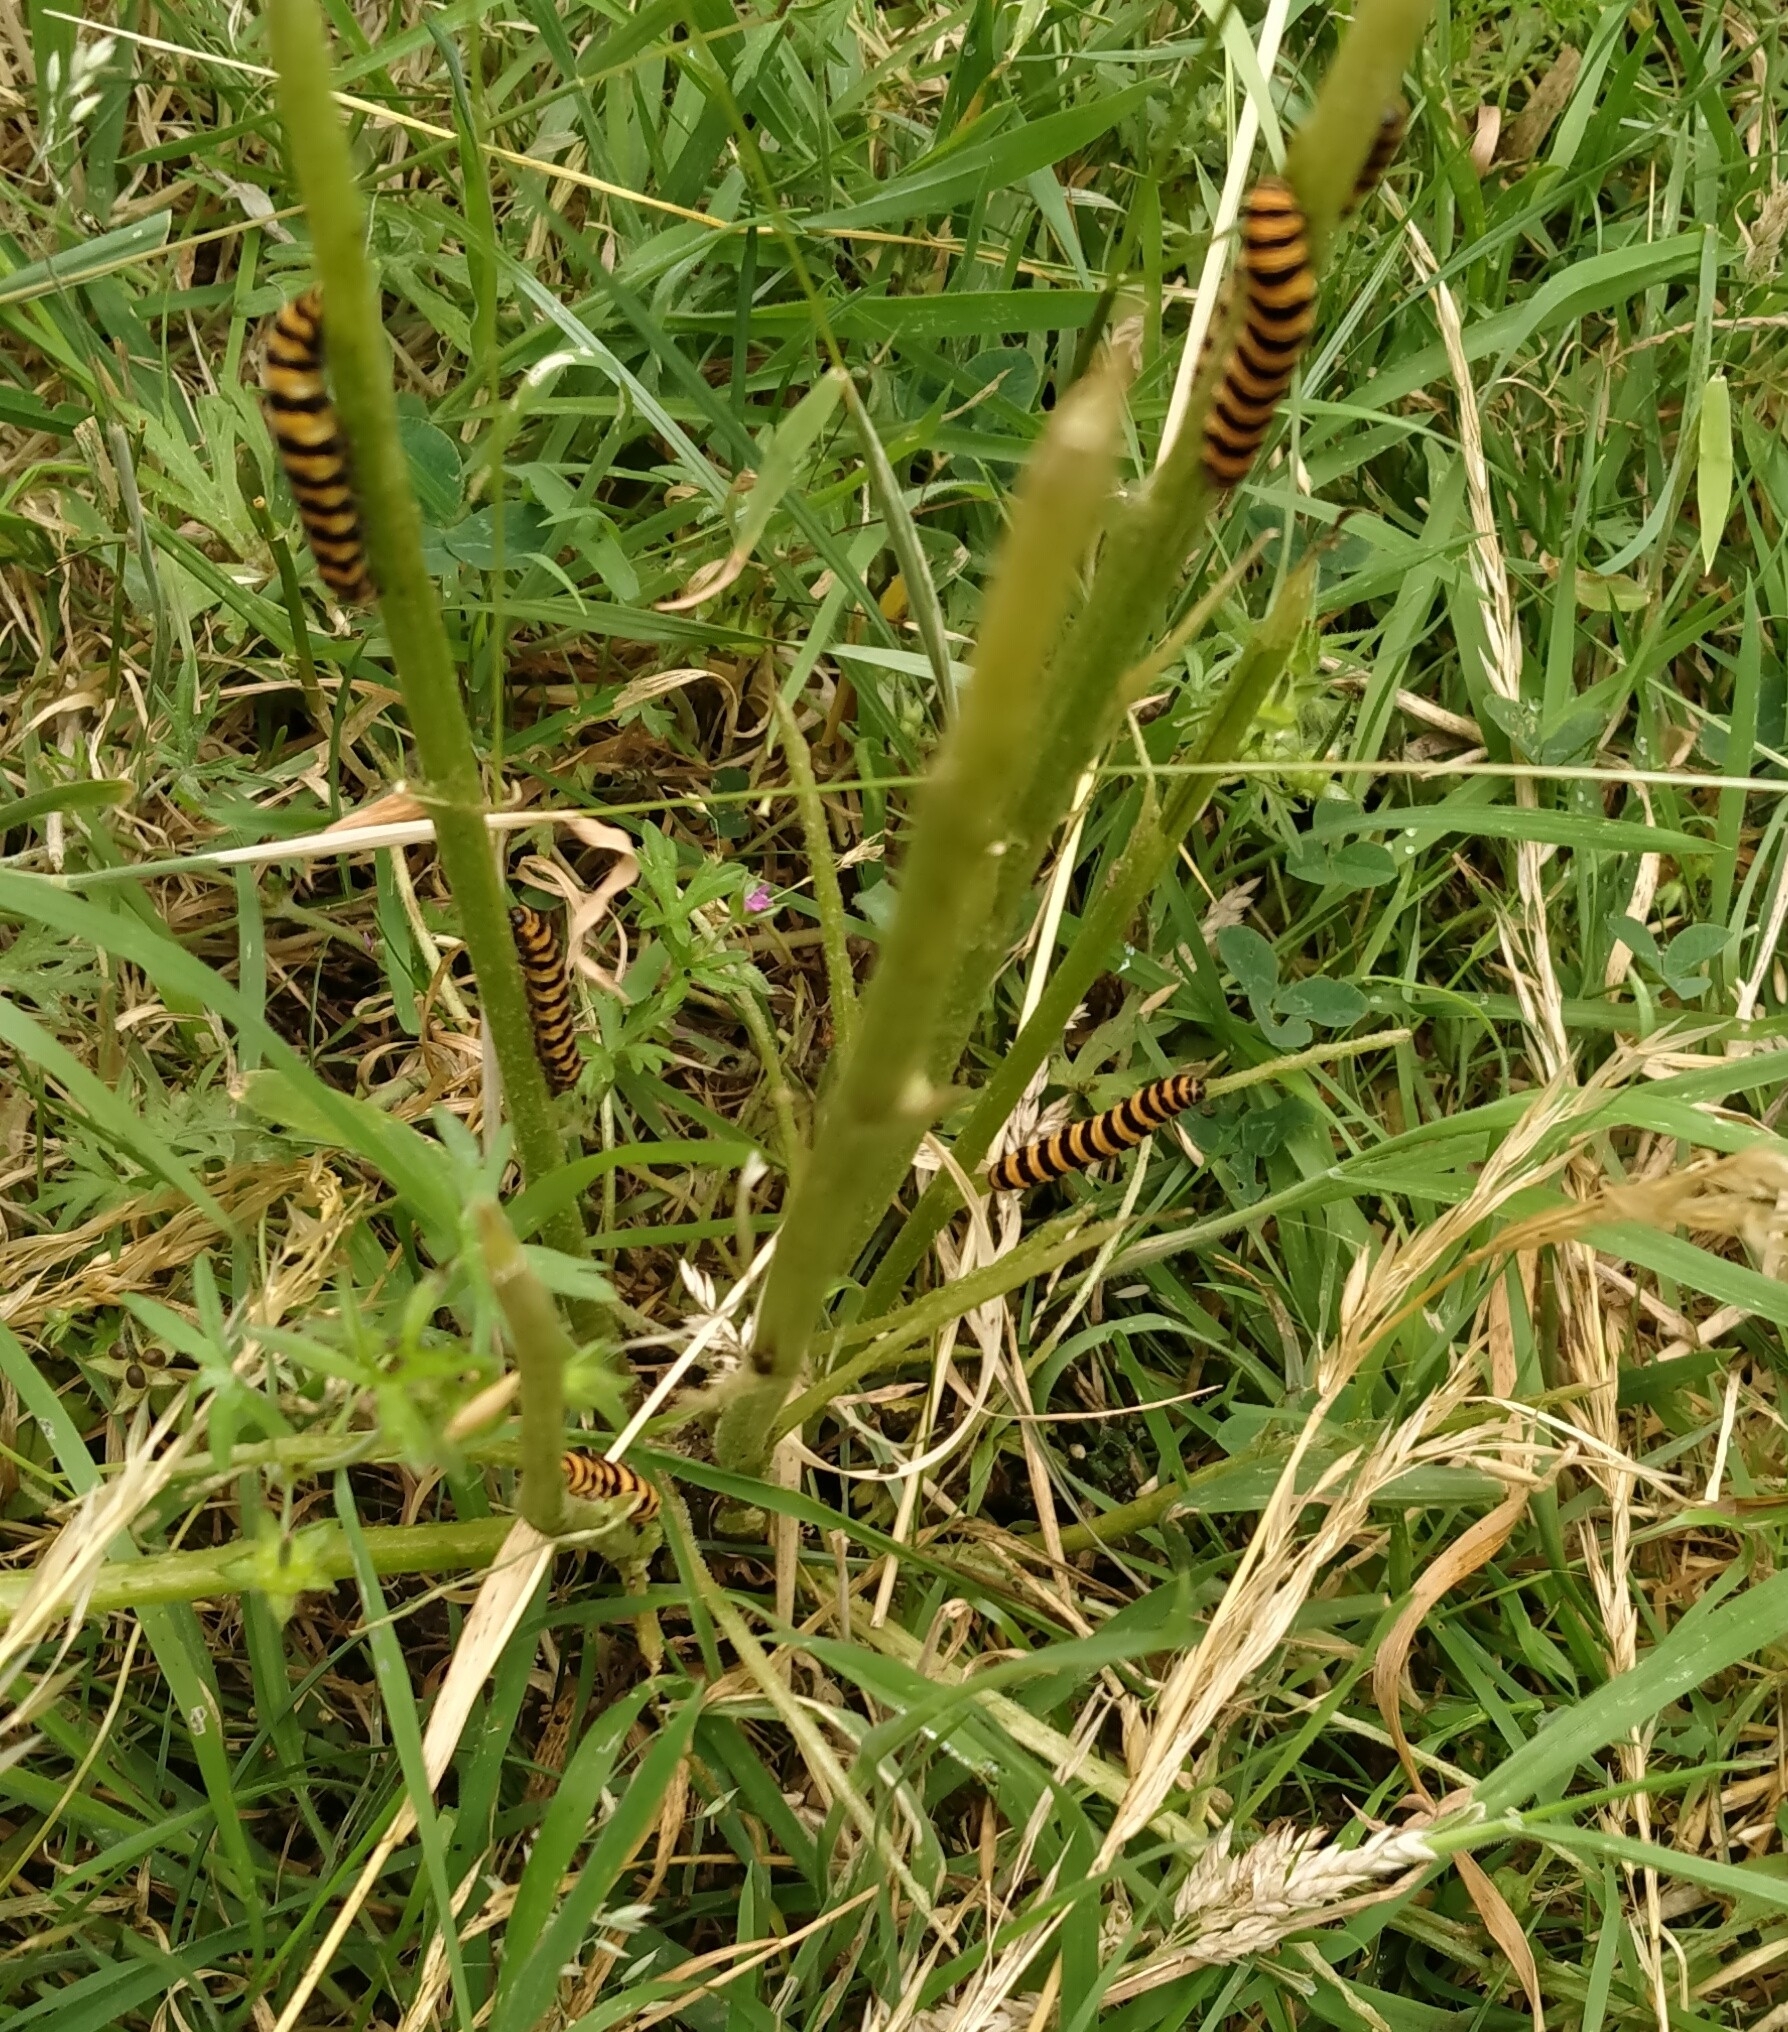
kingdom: Animalia
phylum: Arthropoda
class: Insecta
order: Lepidoptera
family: Erebidae
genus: Tyria
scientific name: Tyria jacobaeae
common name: Cinnabar
